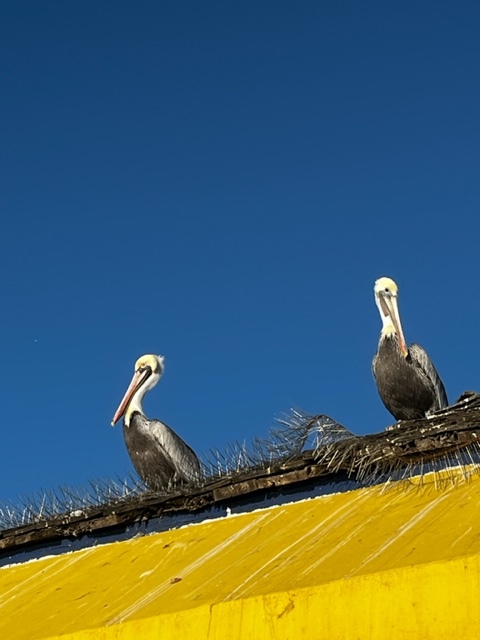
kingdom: Animalia
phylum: Chordata
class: Aves
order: Pelecaniformes
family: Pelecanidae
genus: Pelecanus
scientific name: Pelecanus occidentalis
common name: Brown pelican
